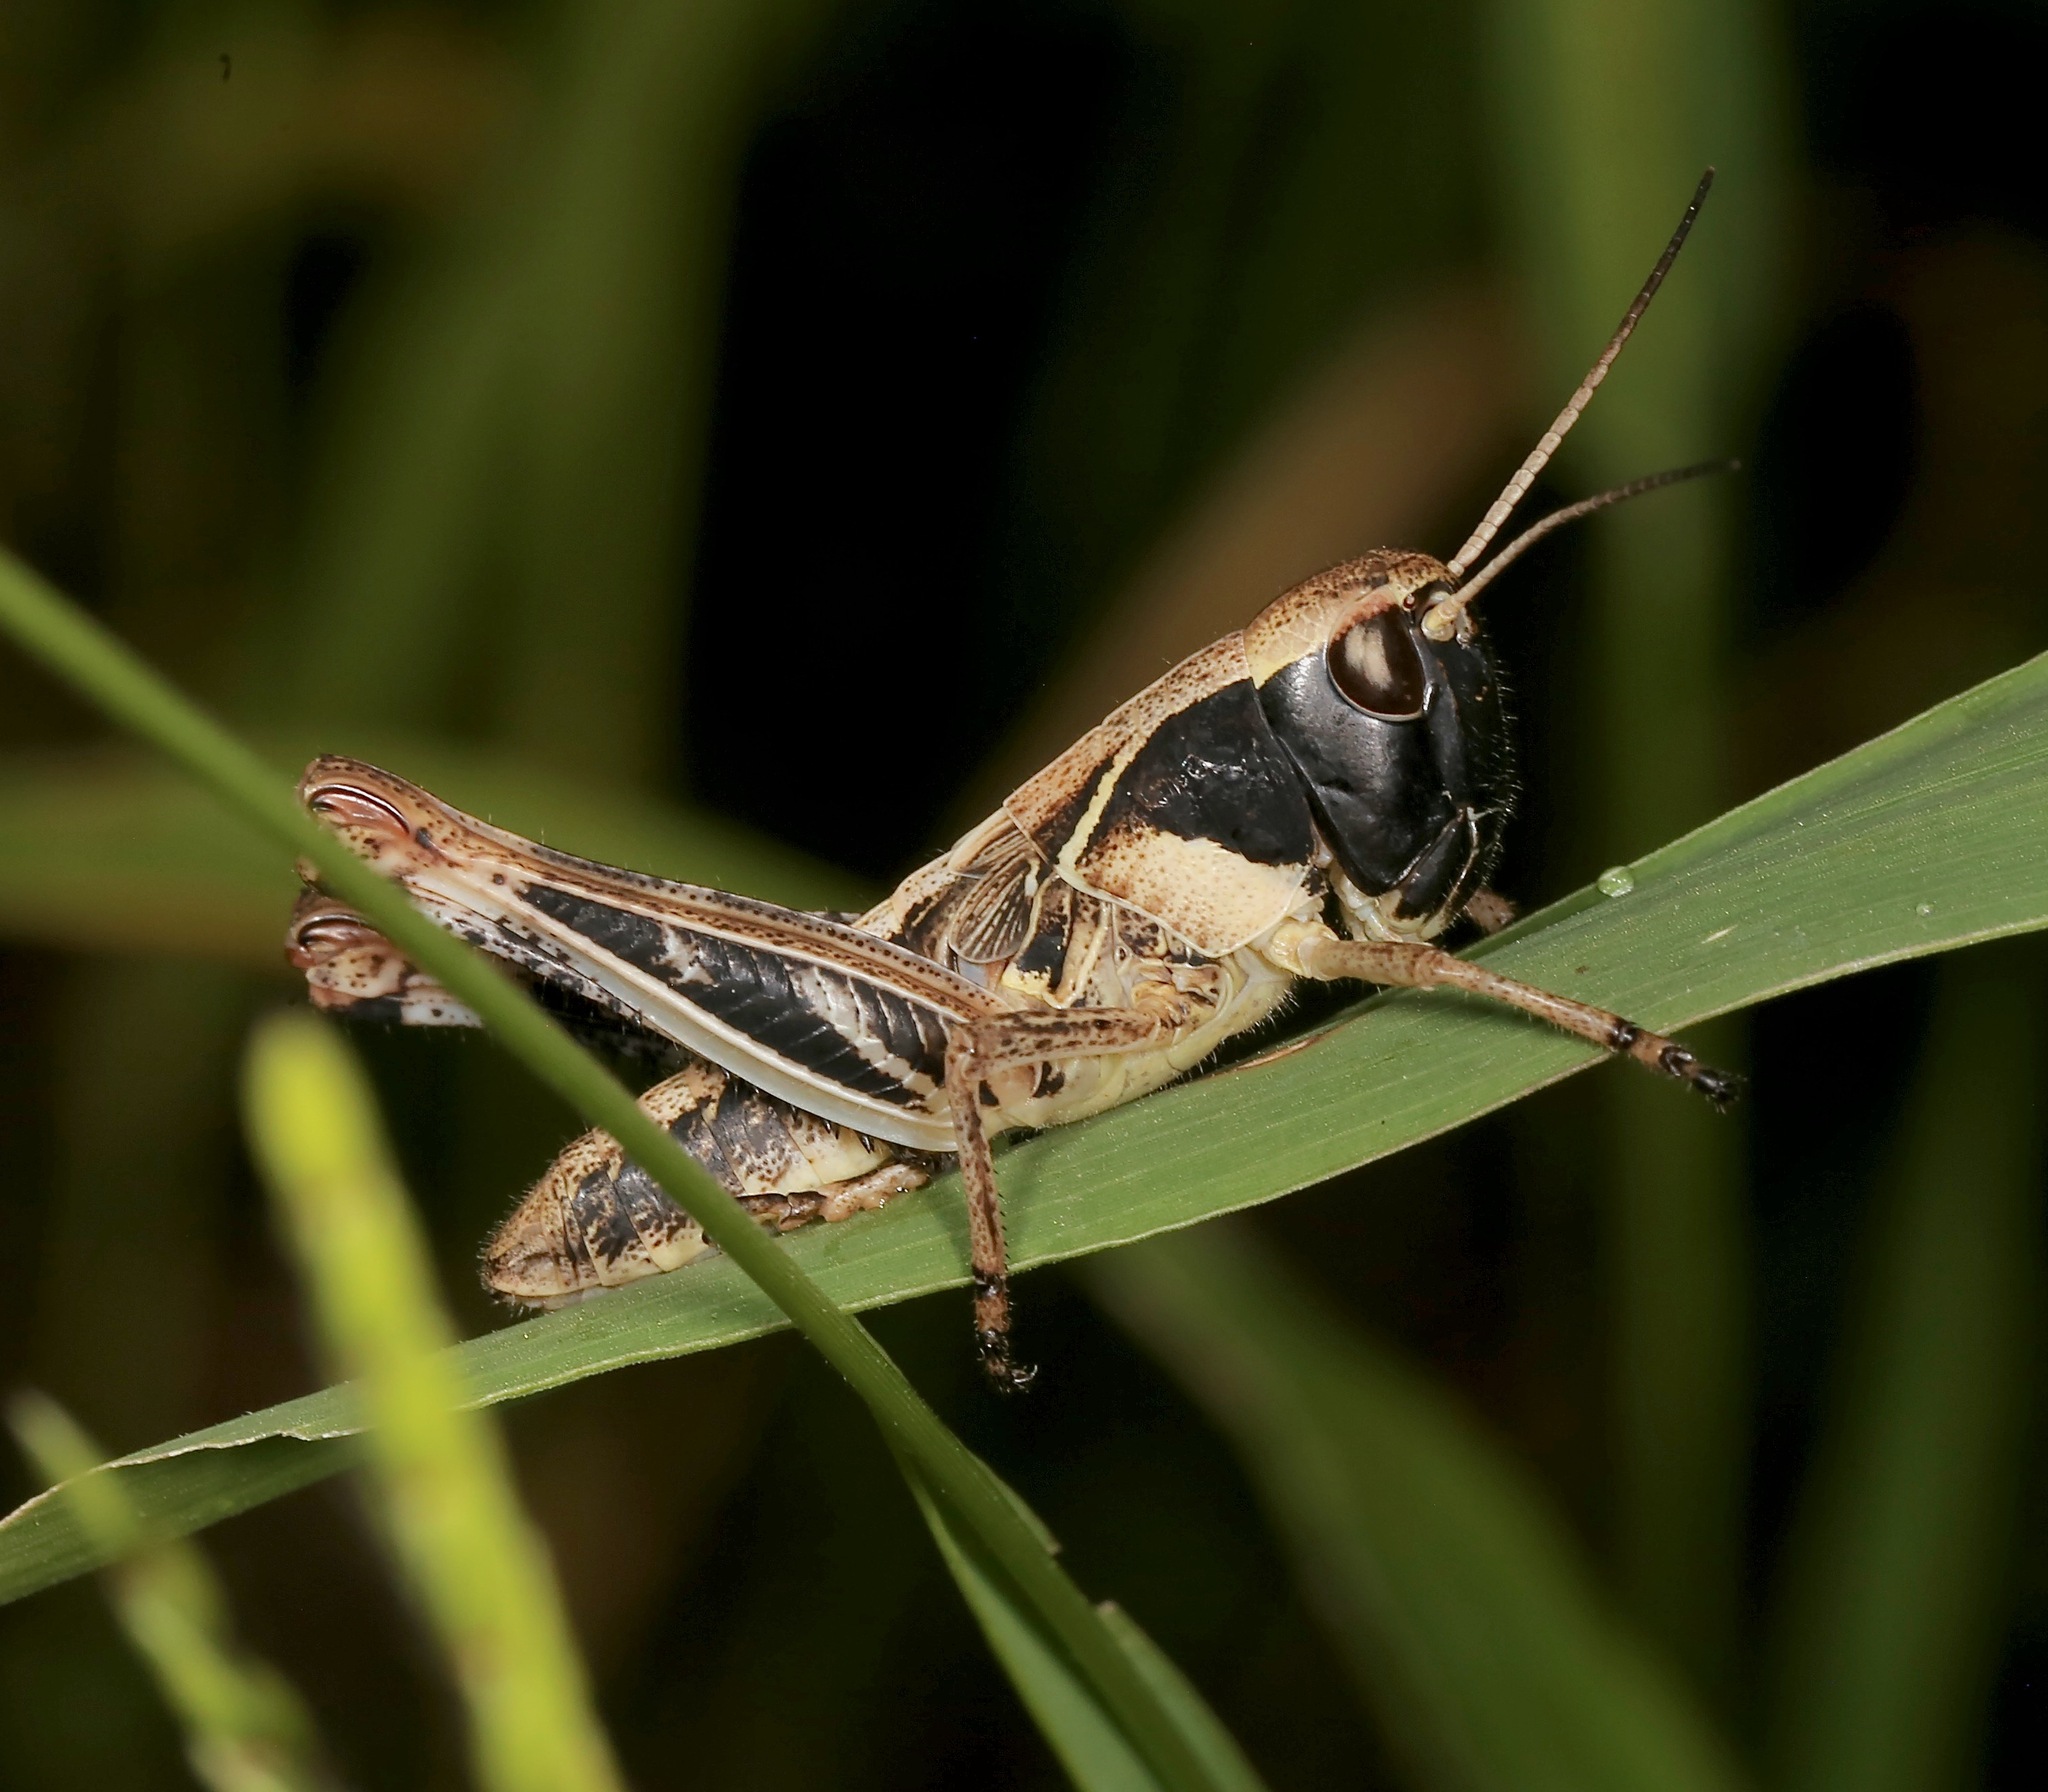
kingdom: Animalia
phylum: Arthropoda
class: Insecta
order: Orthoptera
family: Acrididae
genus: Boopedon
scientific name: Boopedon flaviventris
